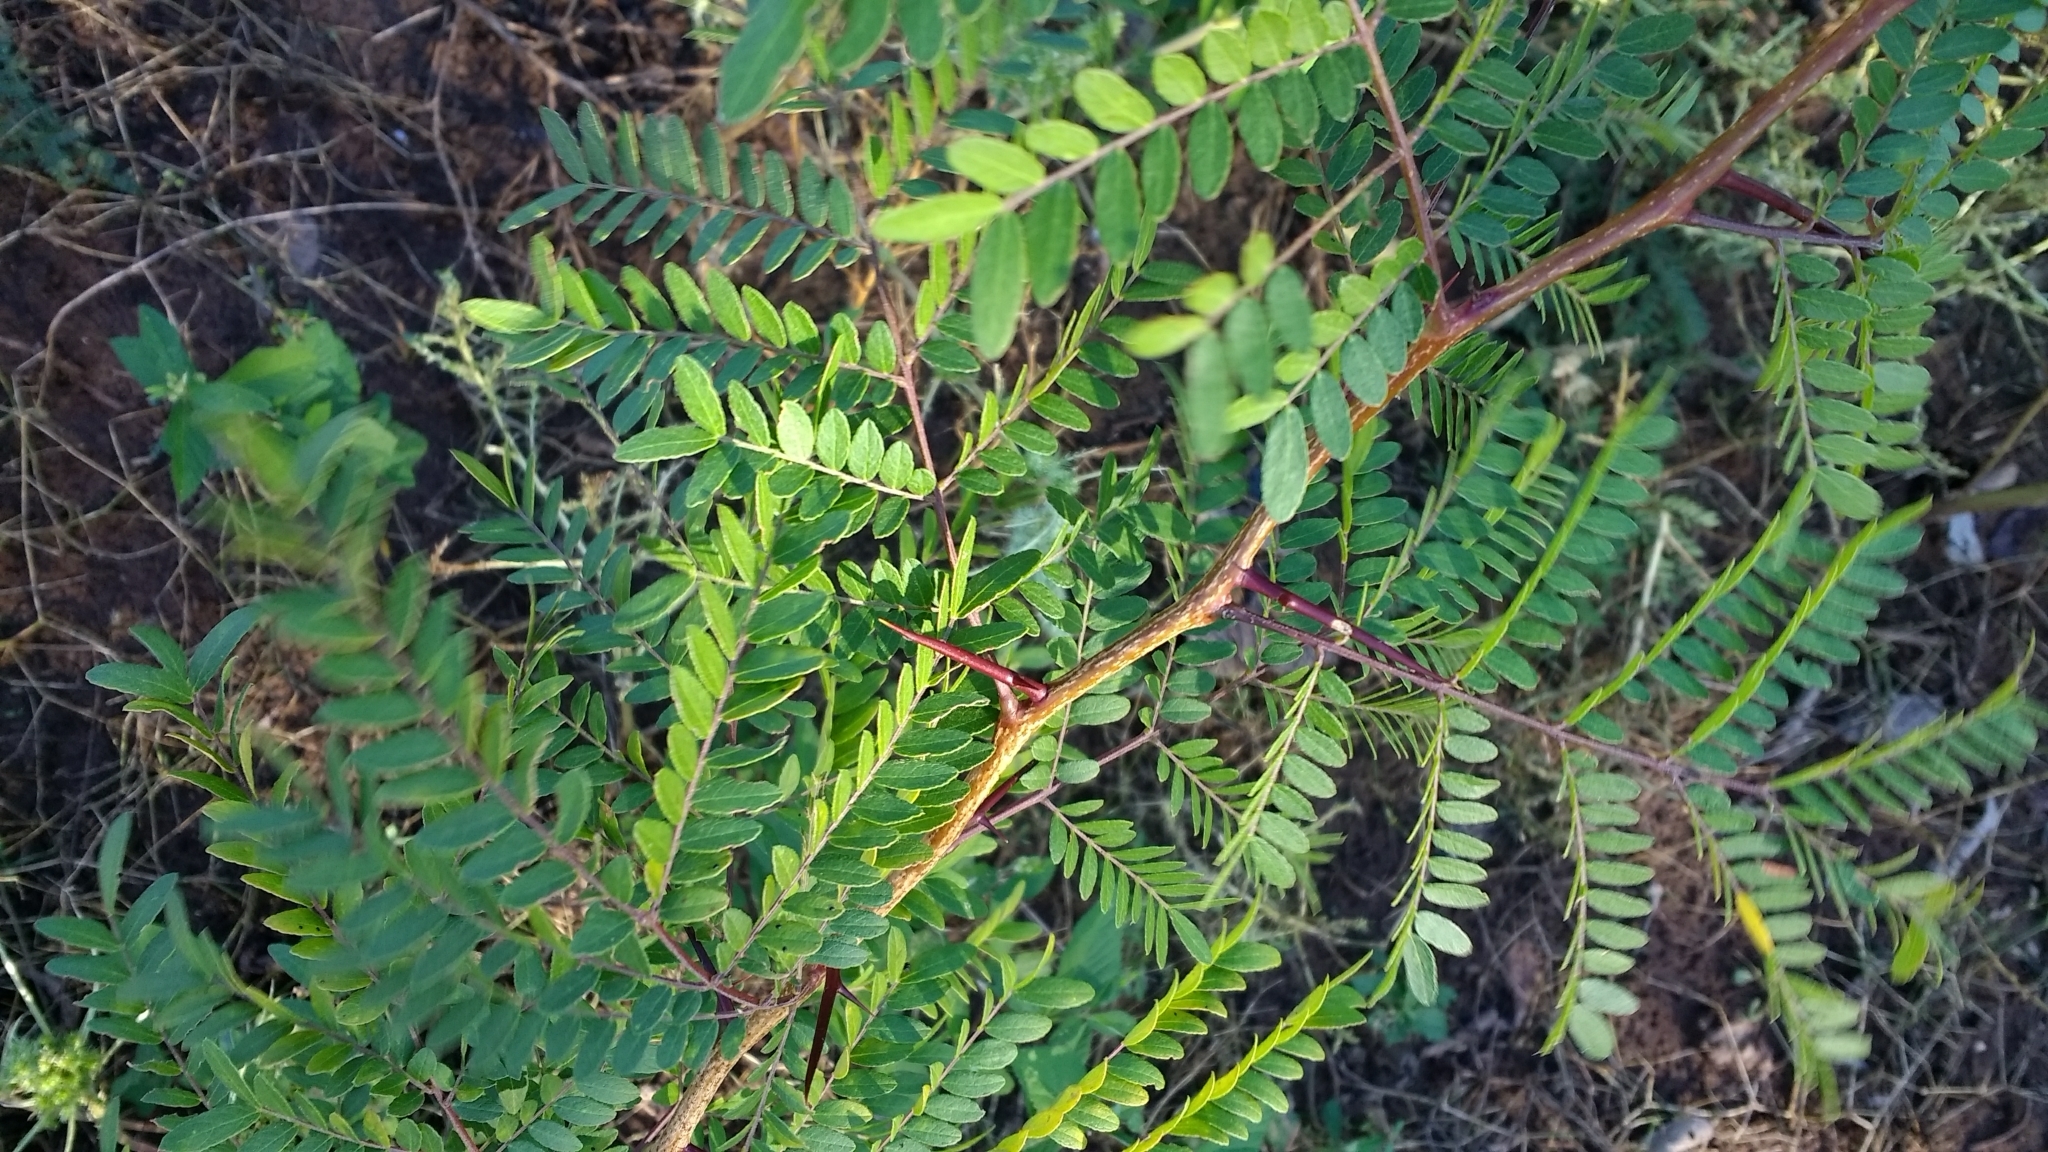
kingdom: Plantae
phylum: Tracheophyta
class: Magnoliopsida
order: Fabales
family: Fabaceae
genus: Gleditsia
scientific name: Gleditsia triacanthos
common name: Common honeylocust
